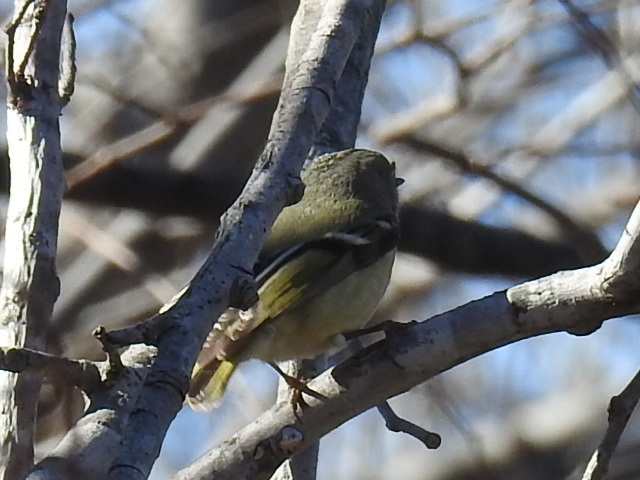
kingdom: Animalia
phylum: Chordata
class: Aves
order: Passeriformes
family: Regulidae
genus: Regulus
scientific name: Regulus calendula
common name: Ruby-crowned kinglet
